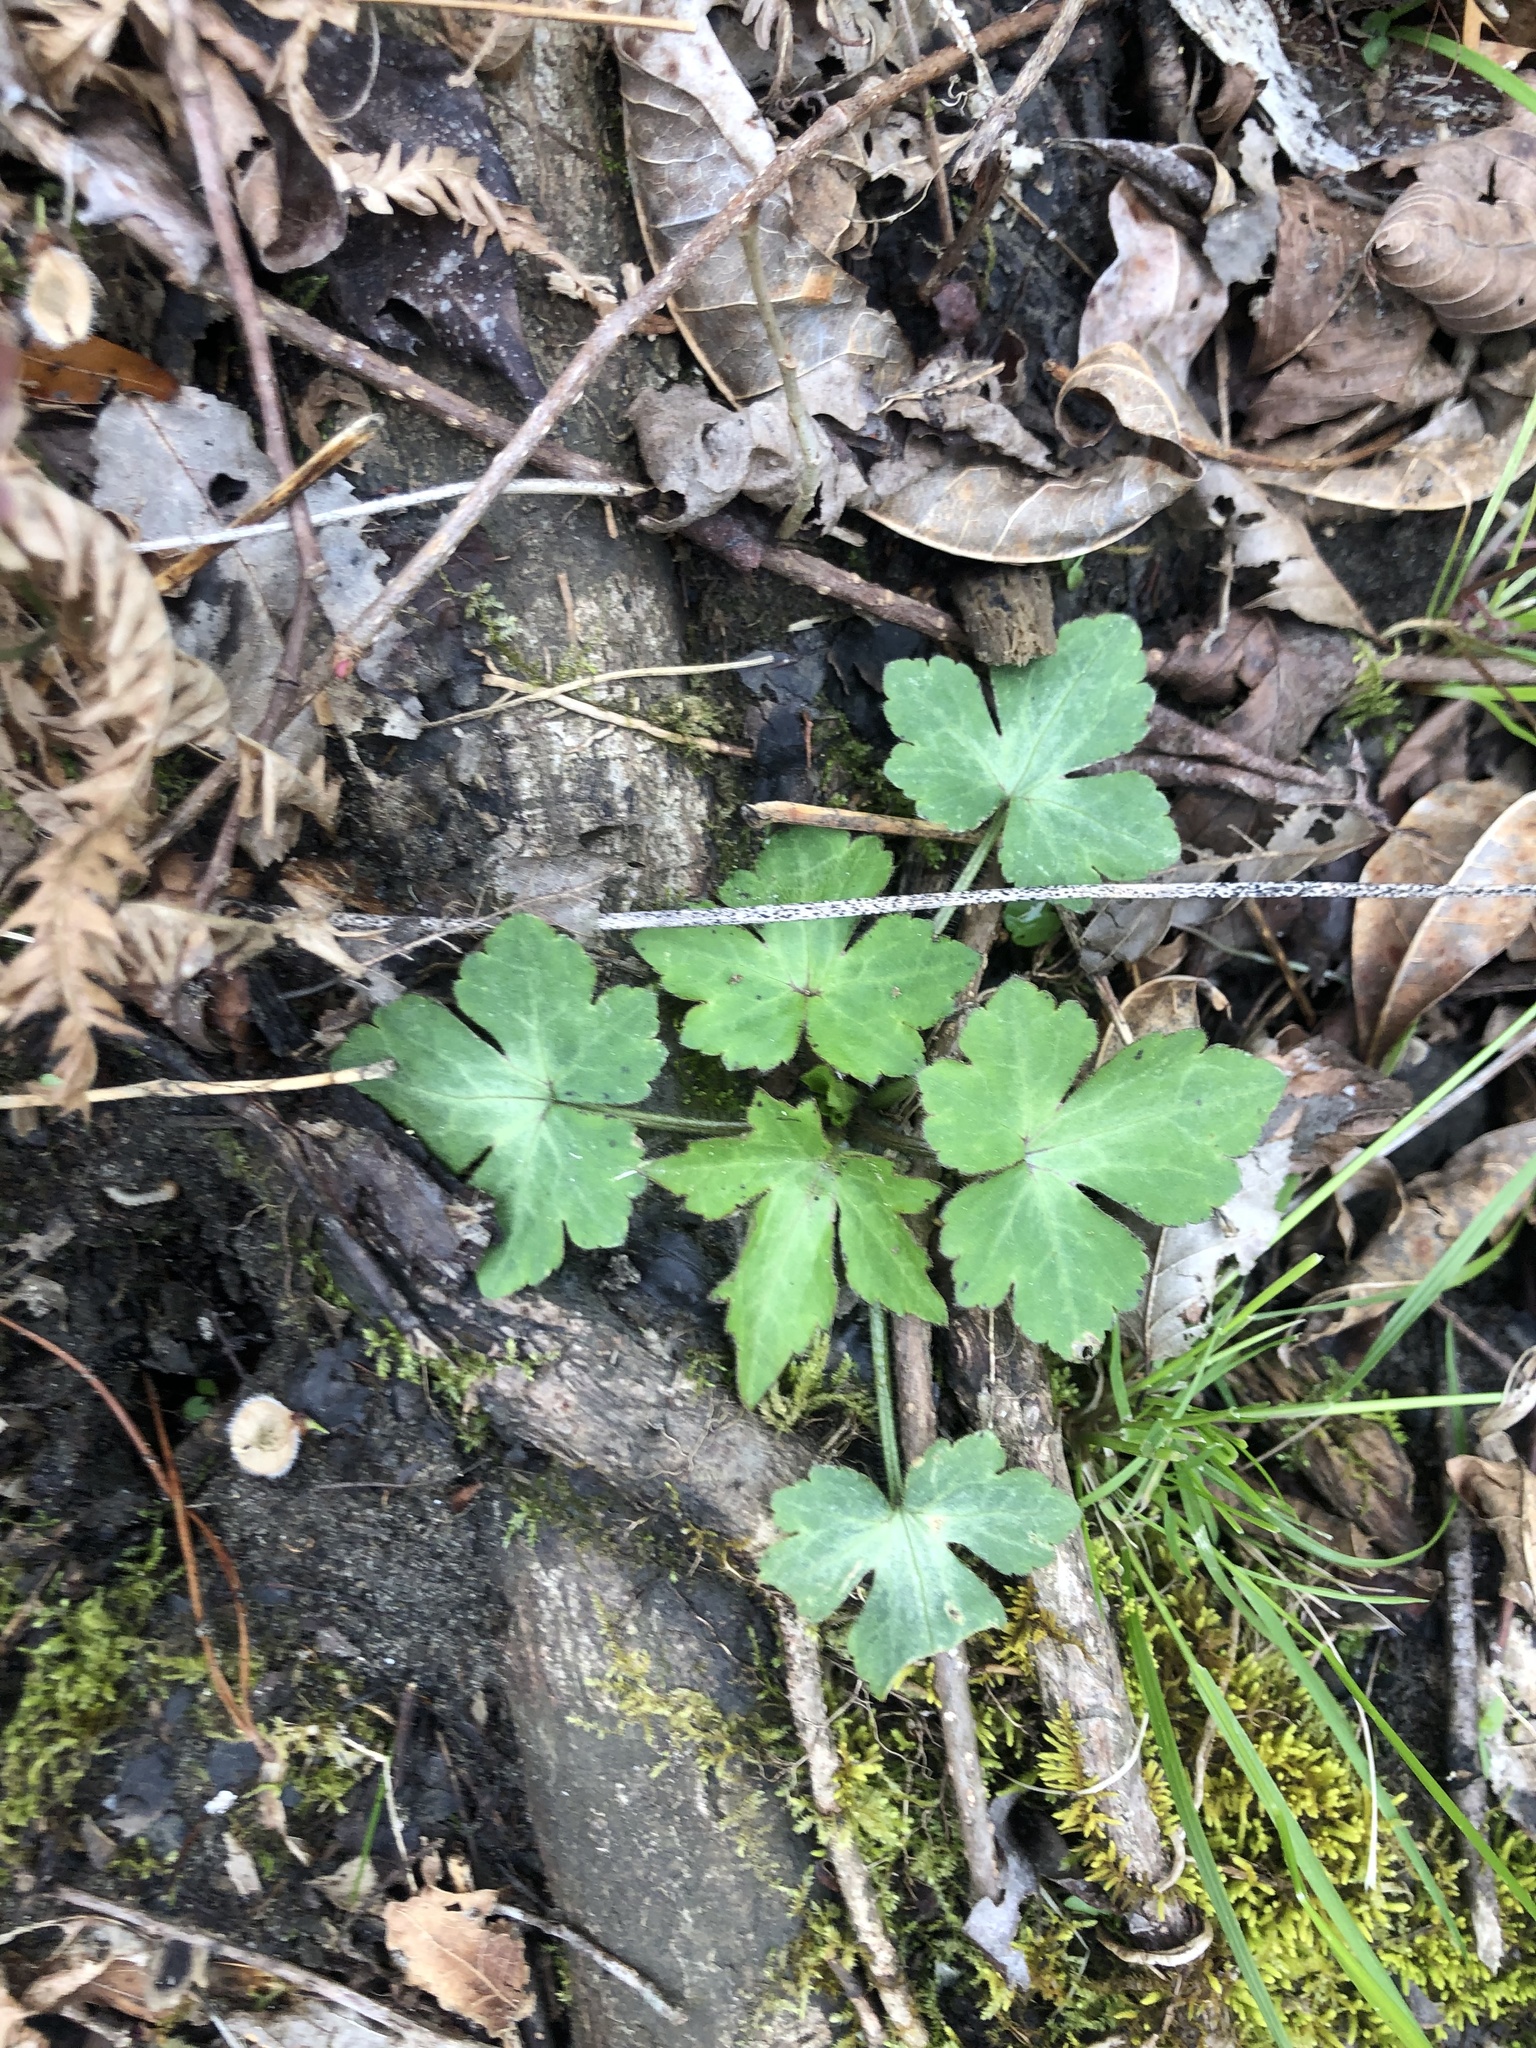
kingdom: Plantae
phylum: Tracheophyta
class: Magnoliopsida
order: Ranunculales
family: Ranunculaceae
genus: Ranunculus
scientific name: Ranunculus recurvatus
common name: Blisterwort
